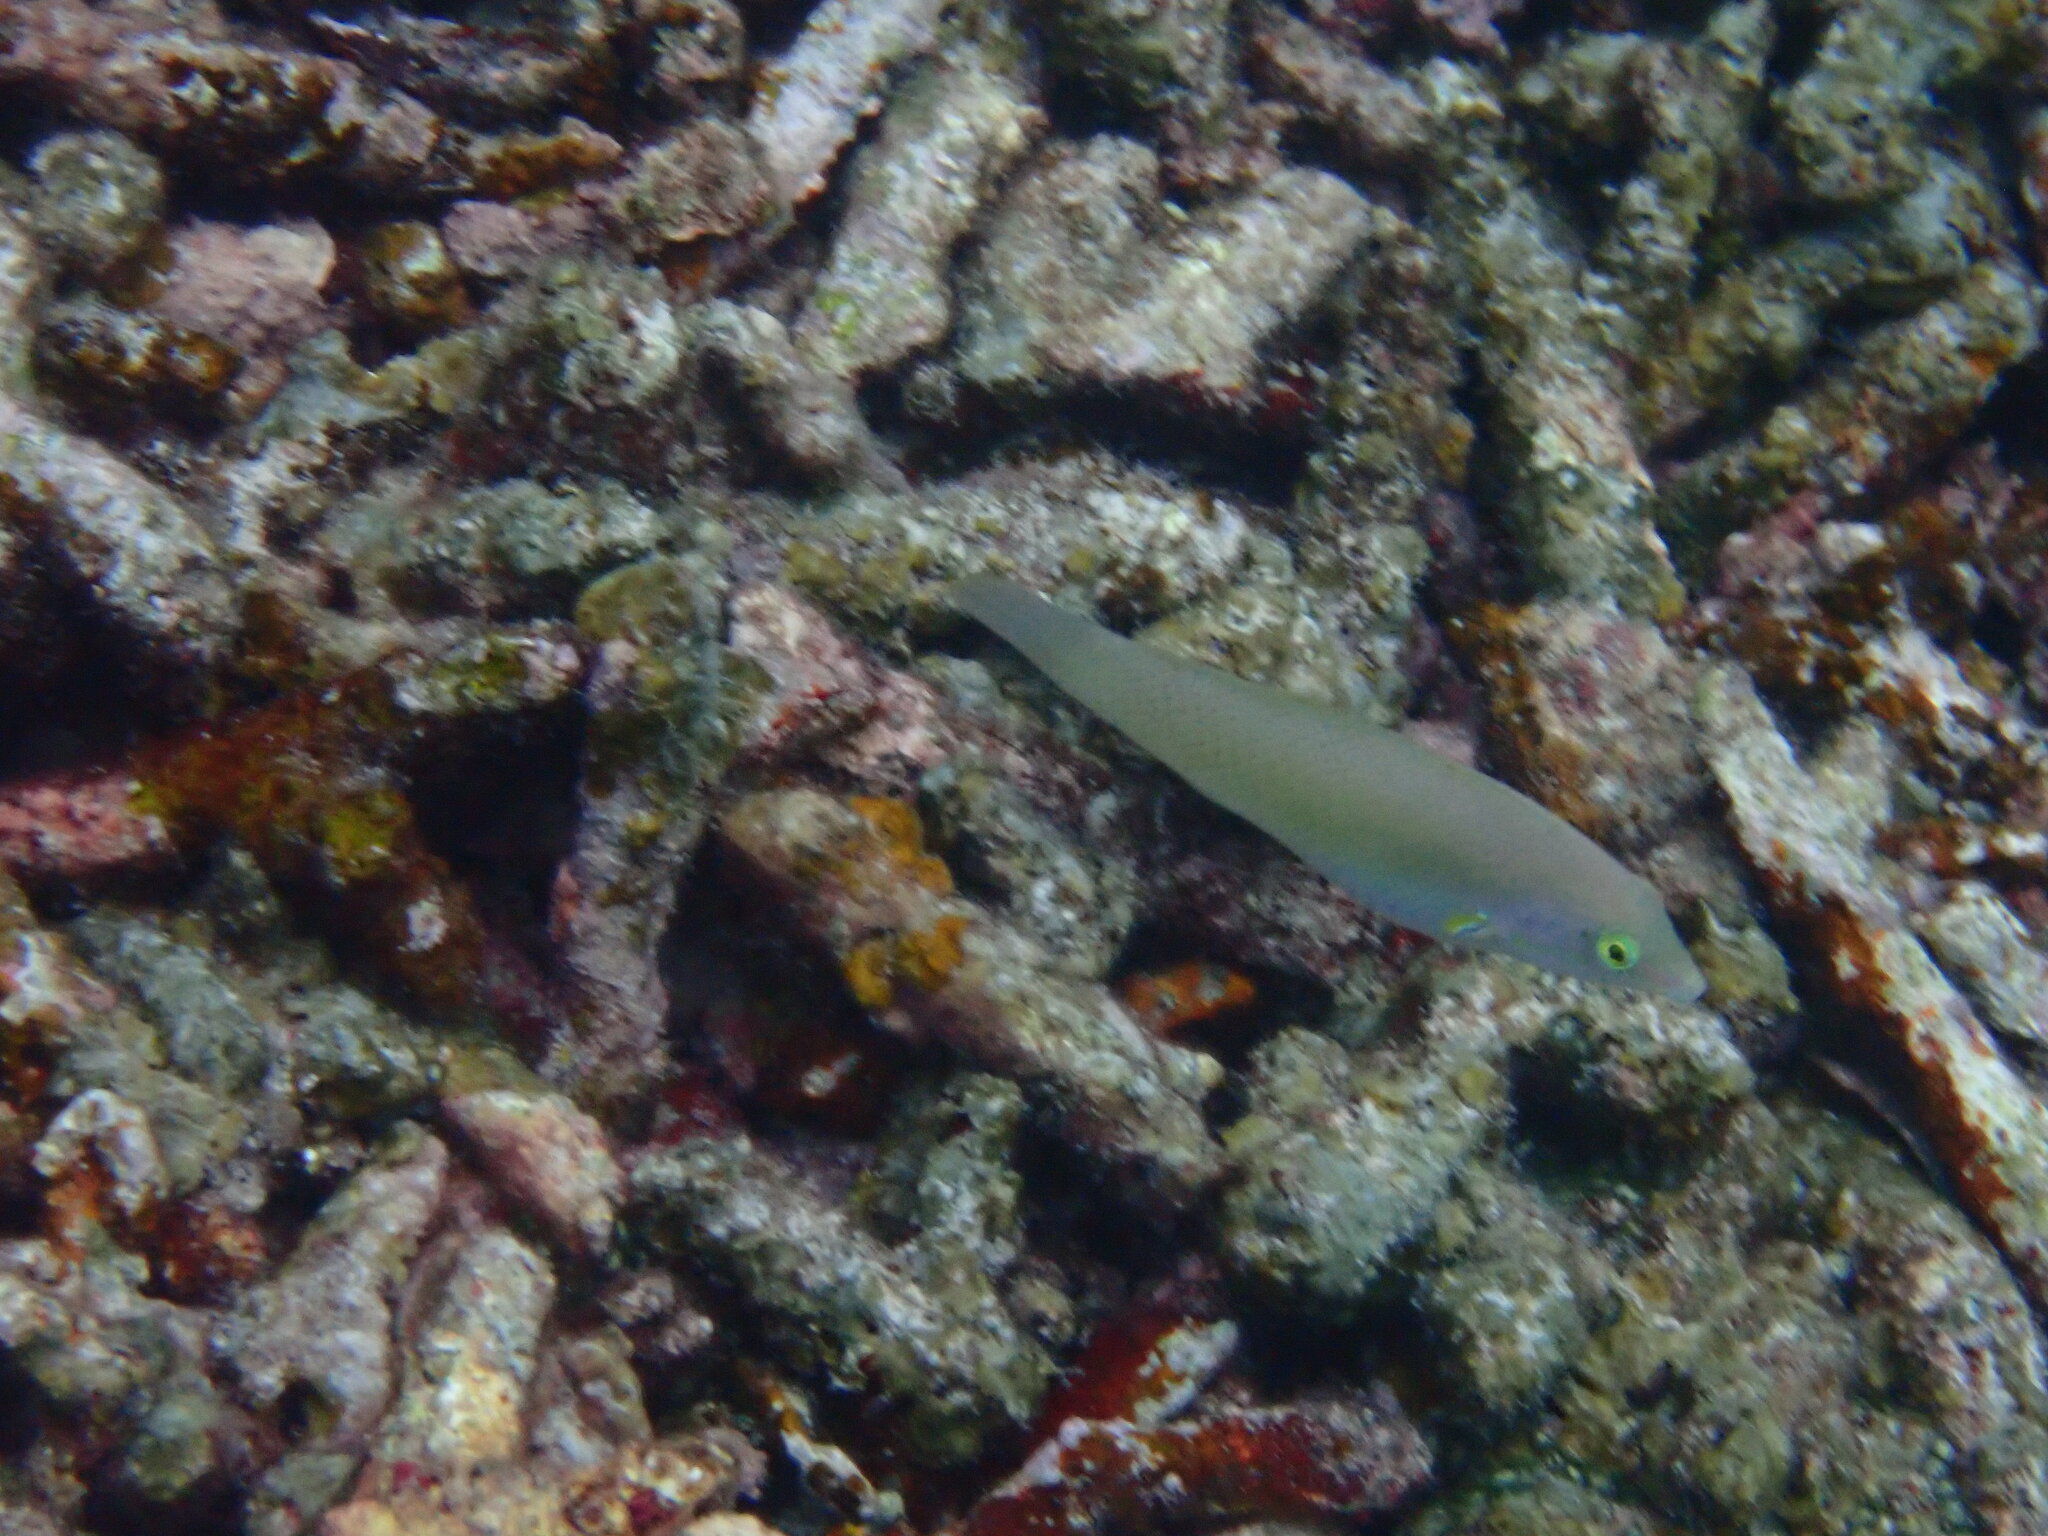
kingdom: Animalia
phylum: Chordata
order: Perciformes
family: Labridae
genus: Halichoeres
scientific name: Halichoeres chloropterus
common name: Pastel-green wrasse
